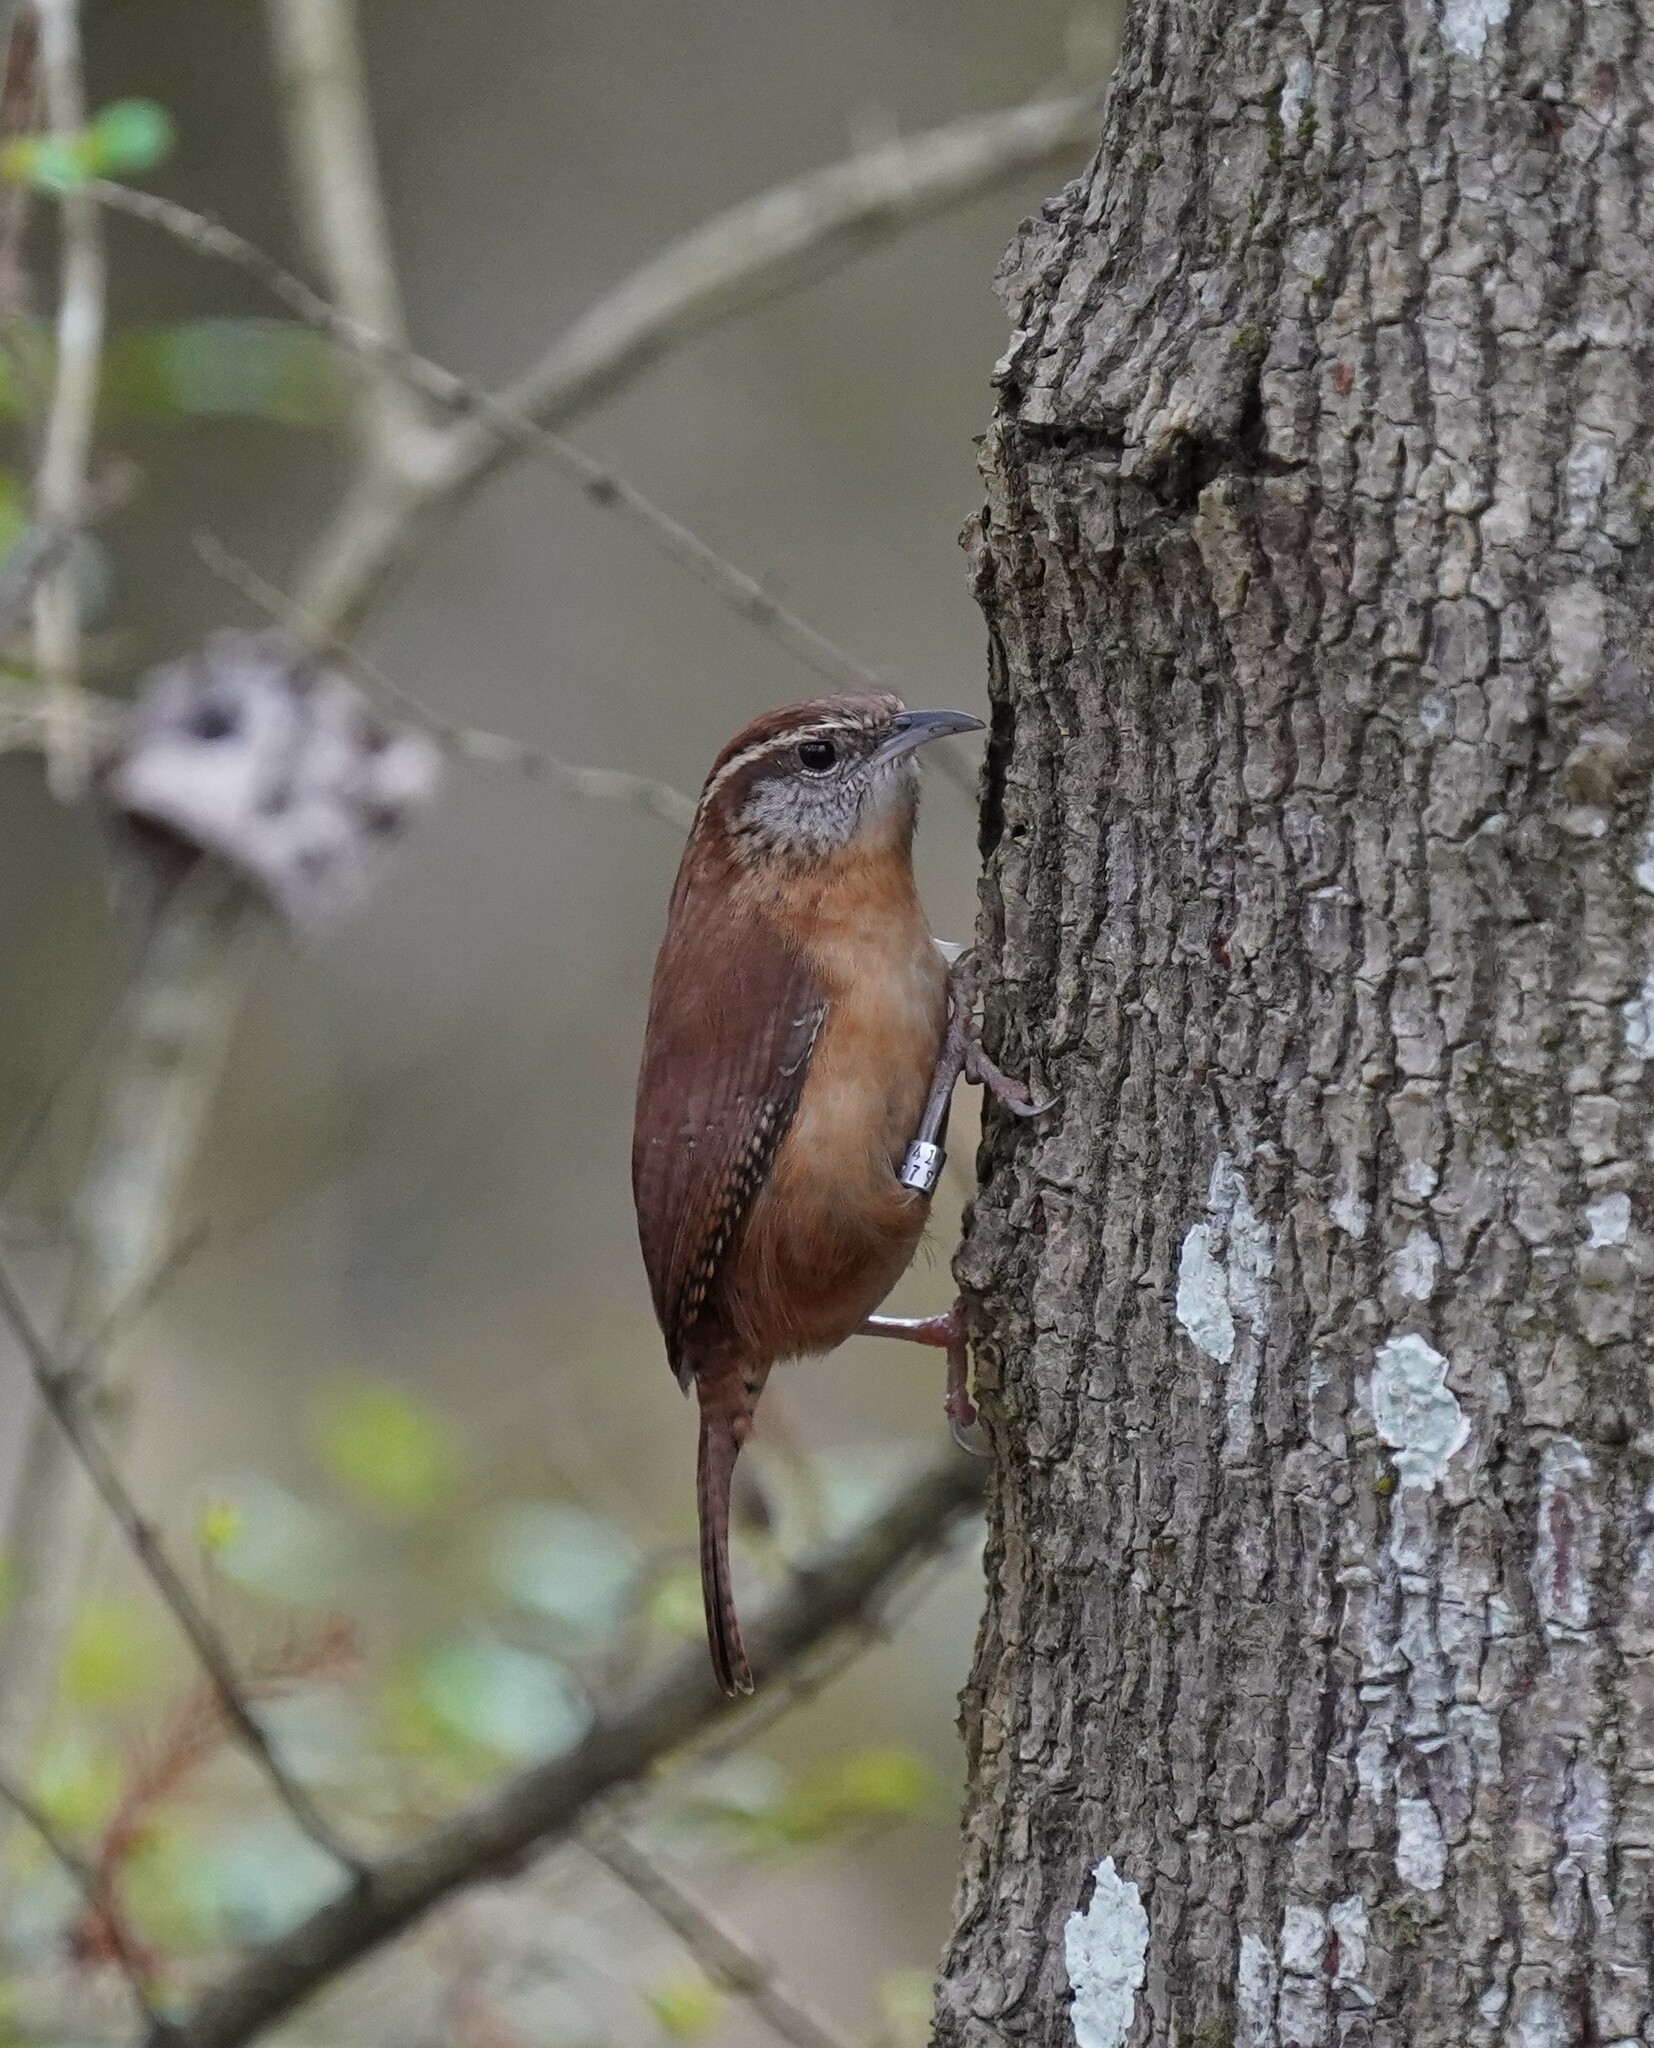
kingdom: Animalia
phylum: Chordata
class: Aves
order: Passeriformes
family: Troglodytidae
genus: Thryothorus
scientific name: Thryothorus ludovicianus
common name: Carolina wren
